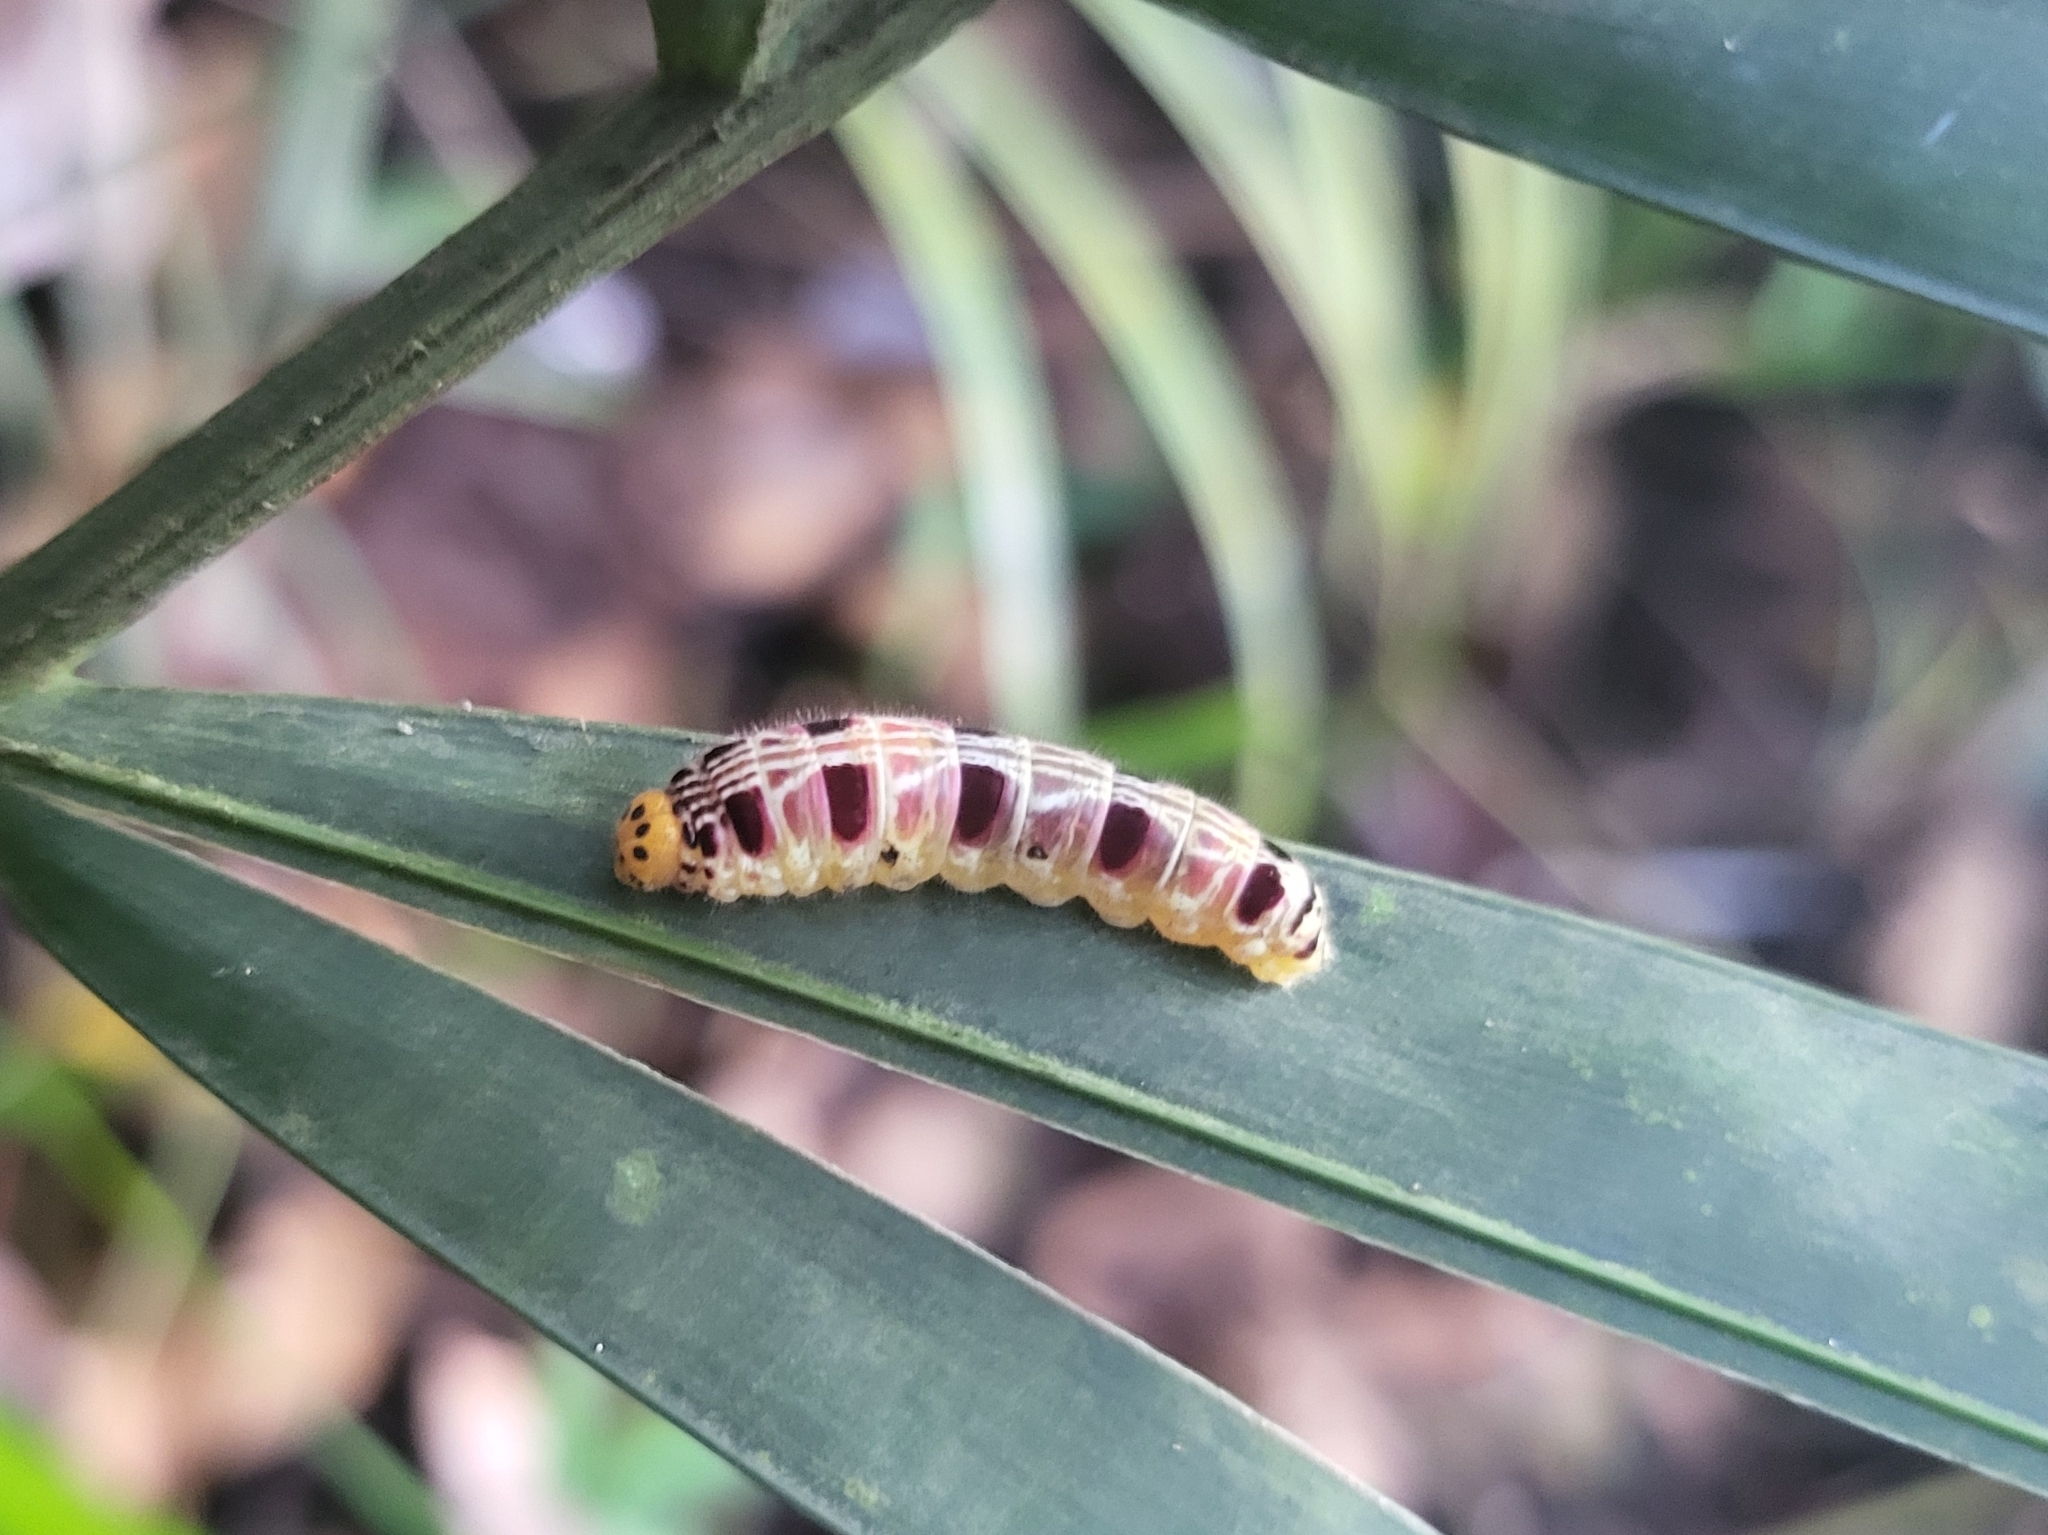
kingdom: Animalia
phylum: Arthropoda
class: Insecta
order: Lepidoptera
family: Hesperiidae
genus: Bibasis
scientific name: Bibasis harisa
